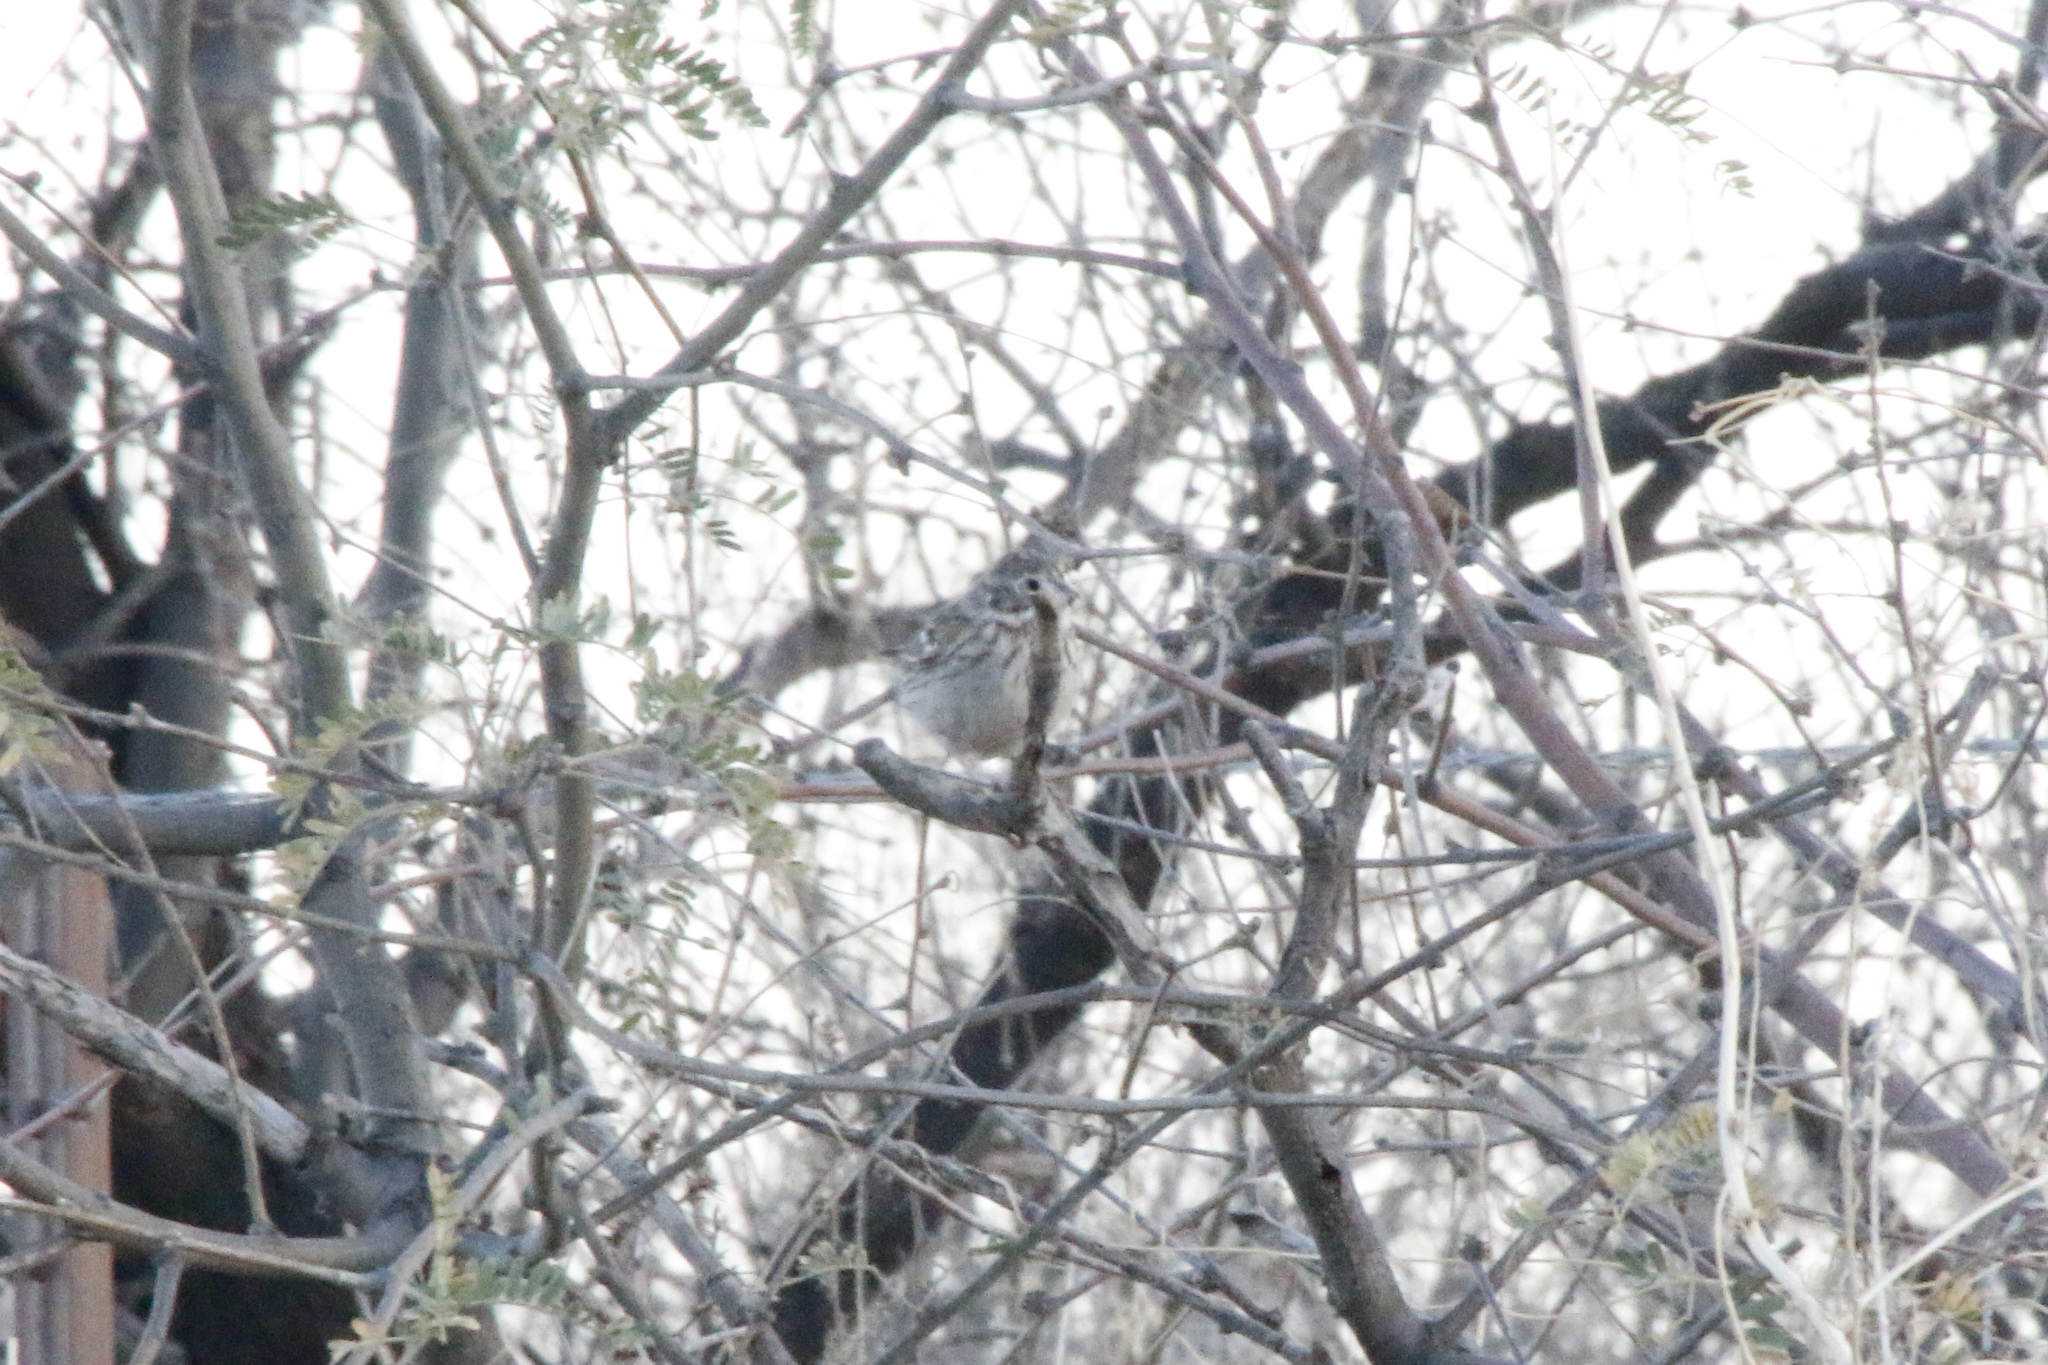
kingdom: Animalia
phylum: Chordata
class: Aves
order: Passeriformes
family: Passerellidae
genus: Pooecetes
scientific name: Pooecetes gramineus
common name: Vesper sparrow
